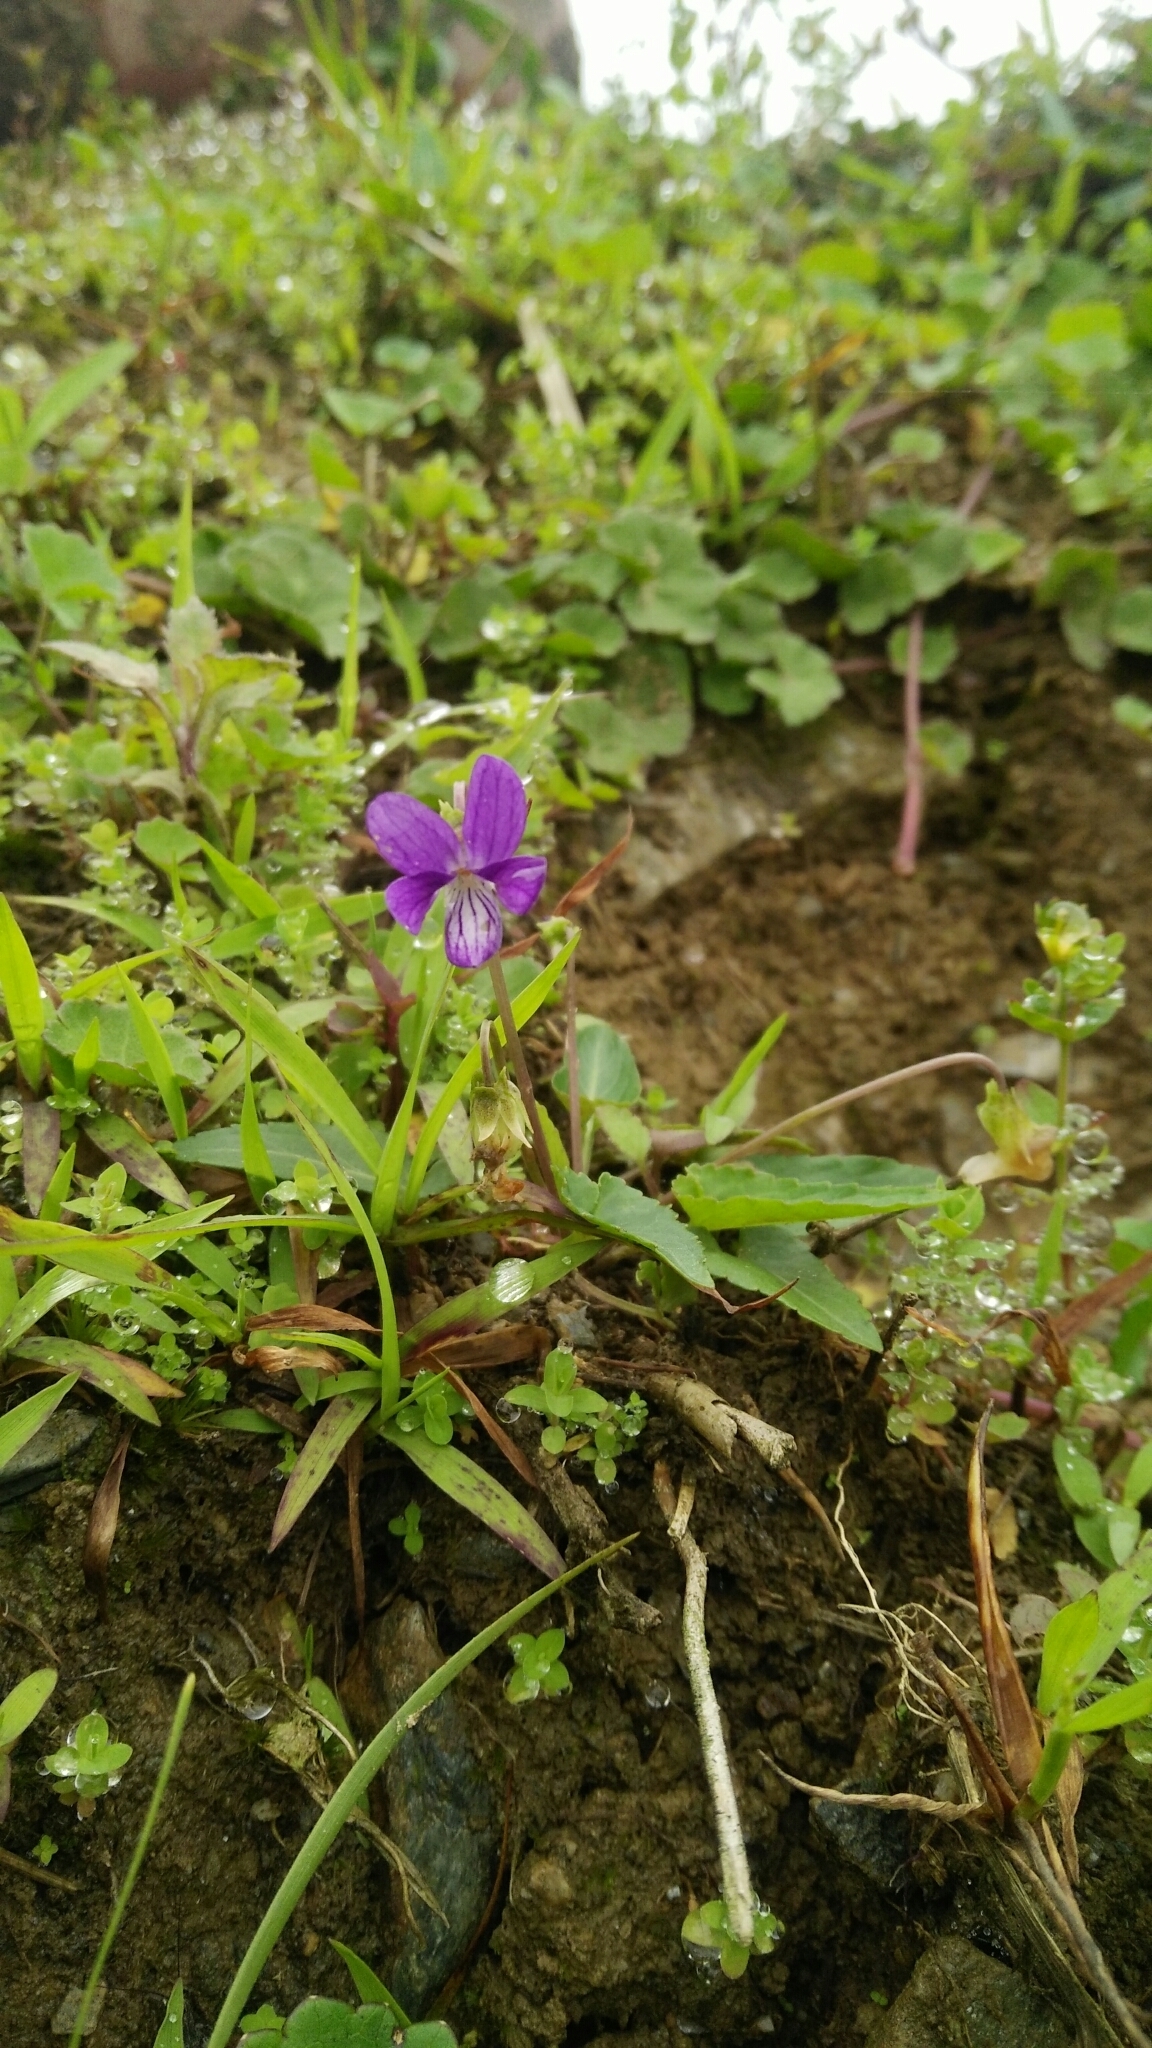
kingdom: Plantae
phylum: Tracheophyta
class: Magnoliopsida
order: Malpighiales
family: Violaceae
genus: Viola
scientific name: Viola inconspicua
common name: Long sepal violet
